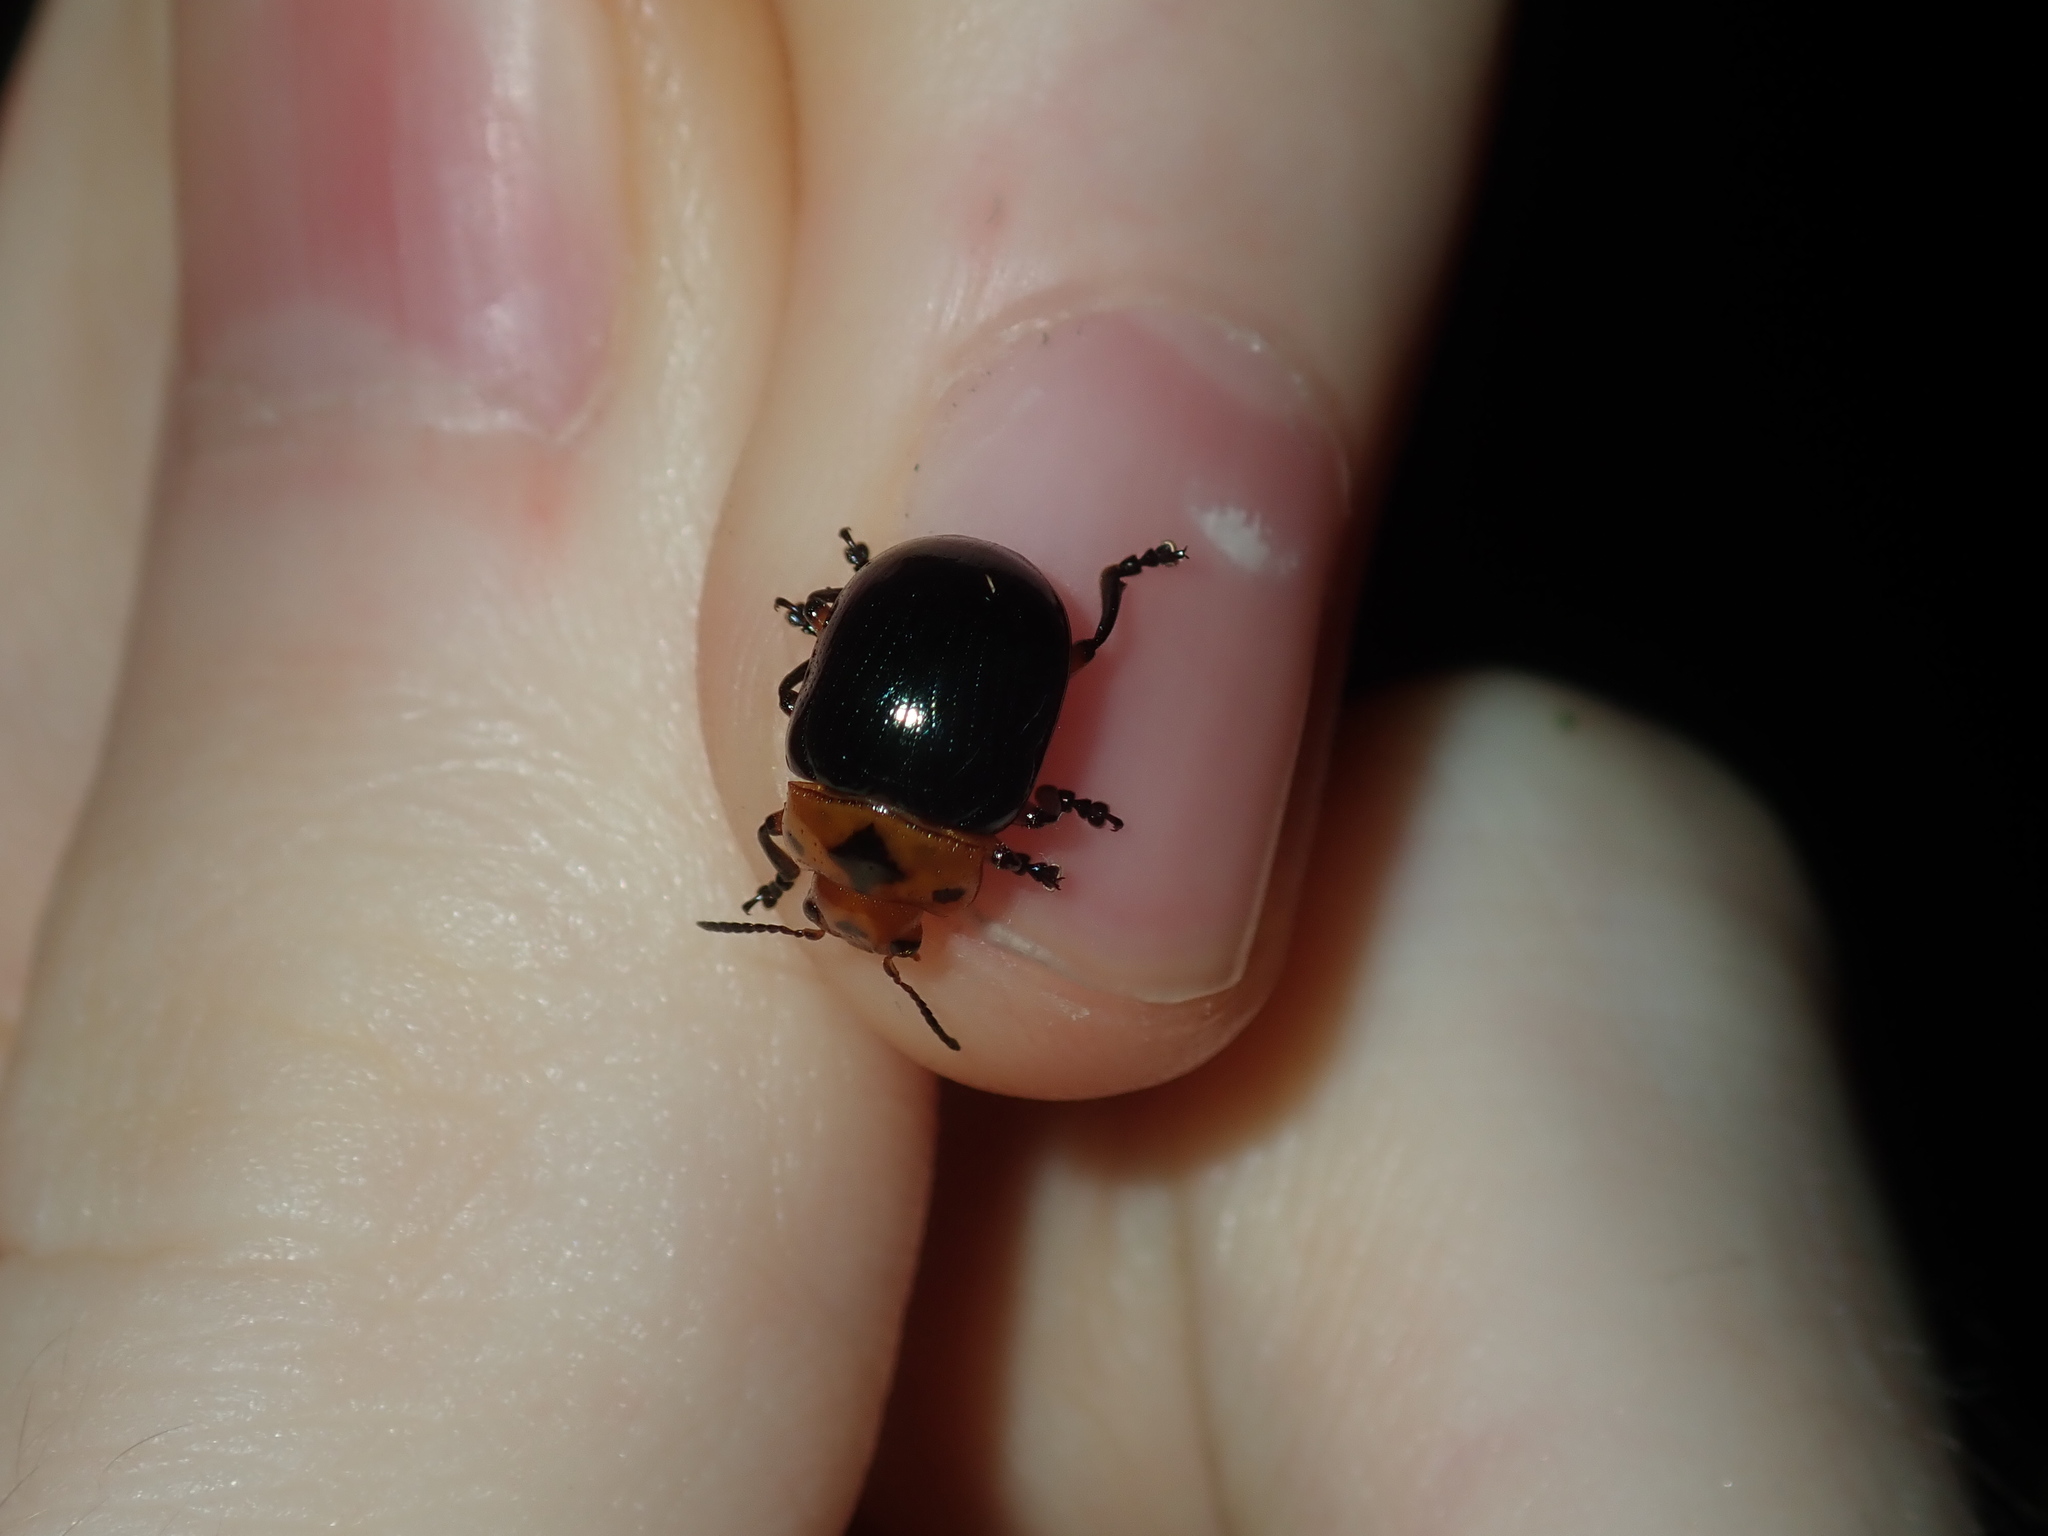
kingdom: Animalia
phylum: Arthropoda
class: Insecta
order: Coleoptera
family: Chrysomelidae
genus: Calomela
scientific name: Calomela
